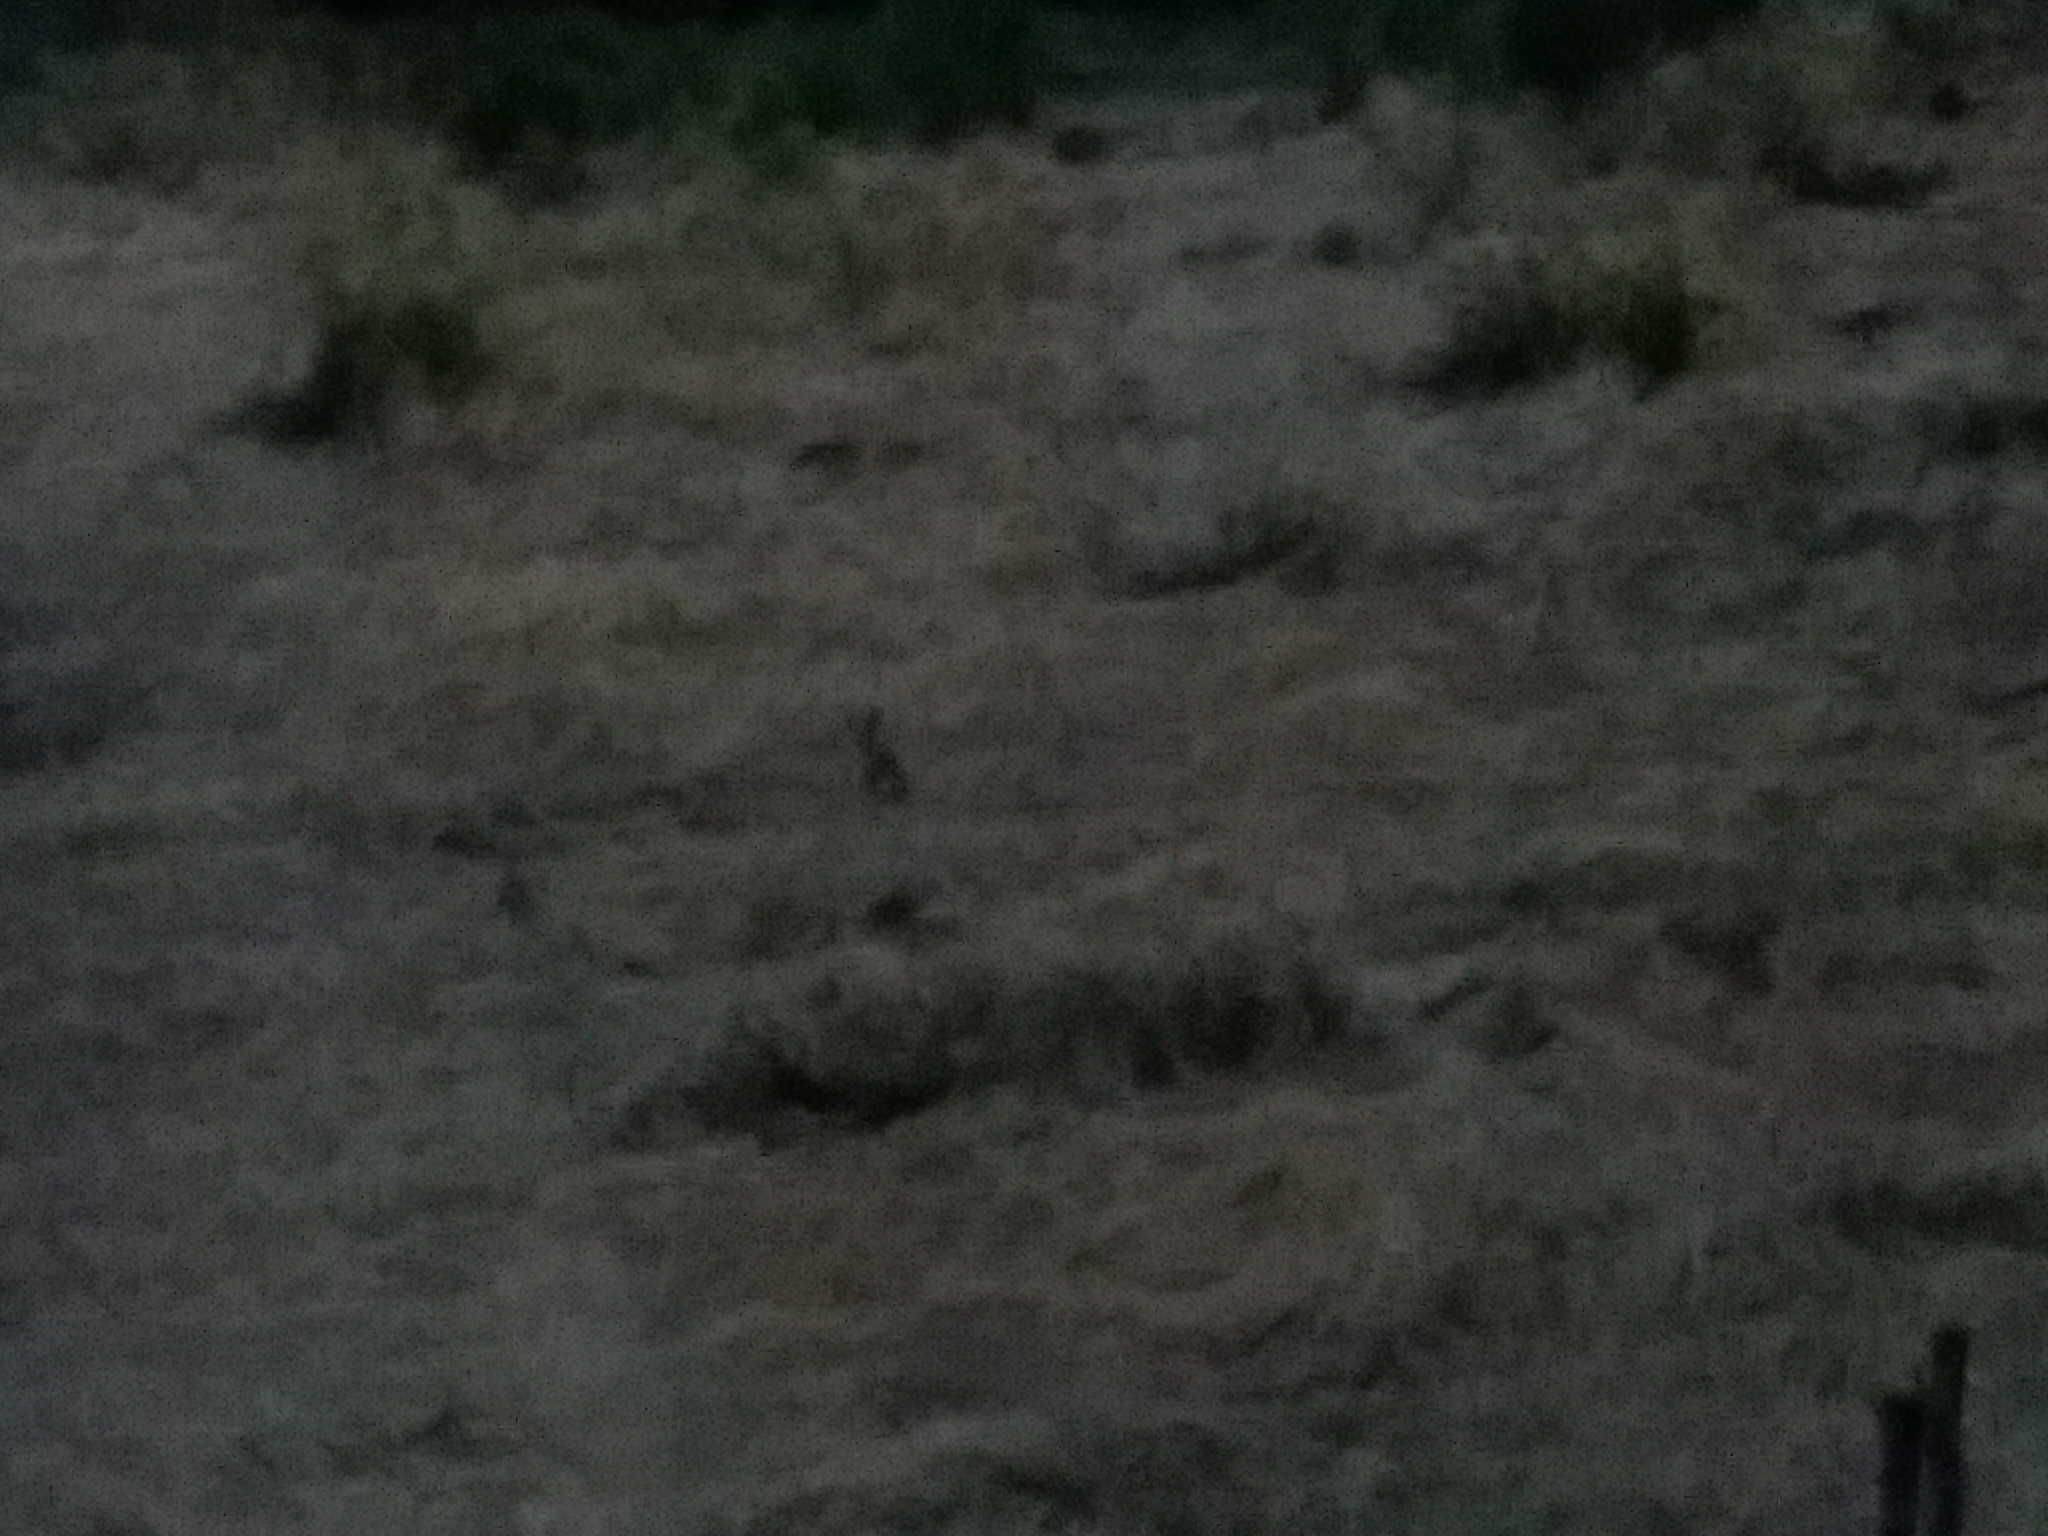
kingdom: Animalia
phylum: Chordata
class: Mammalia
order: Lagomorpha
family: Leporidae
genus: Lepus
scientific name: Lepus europaeus
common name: European hare
